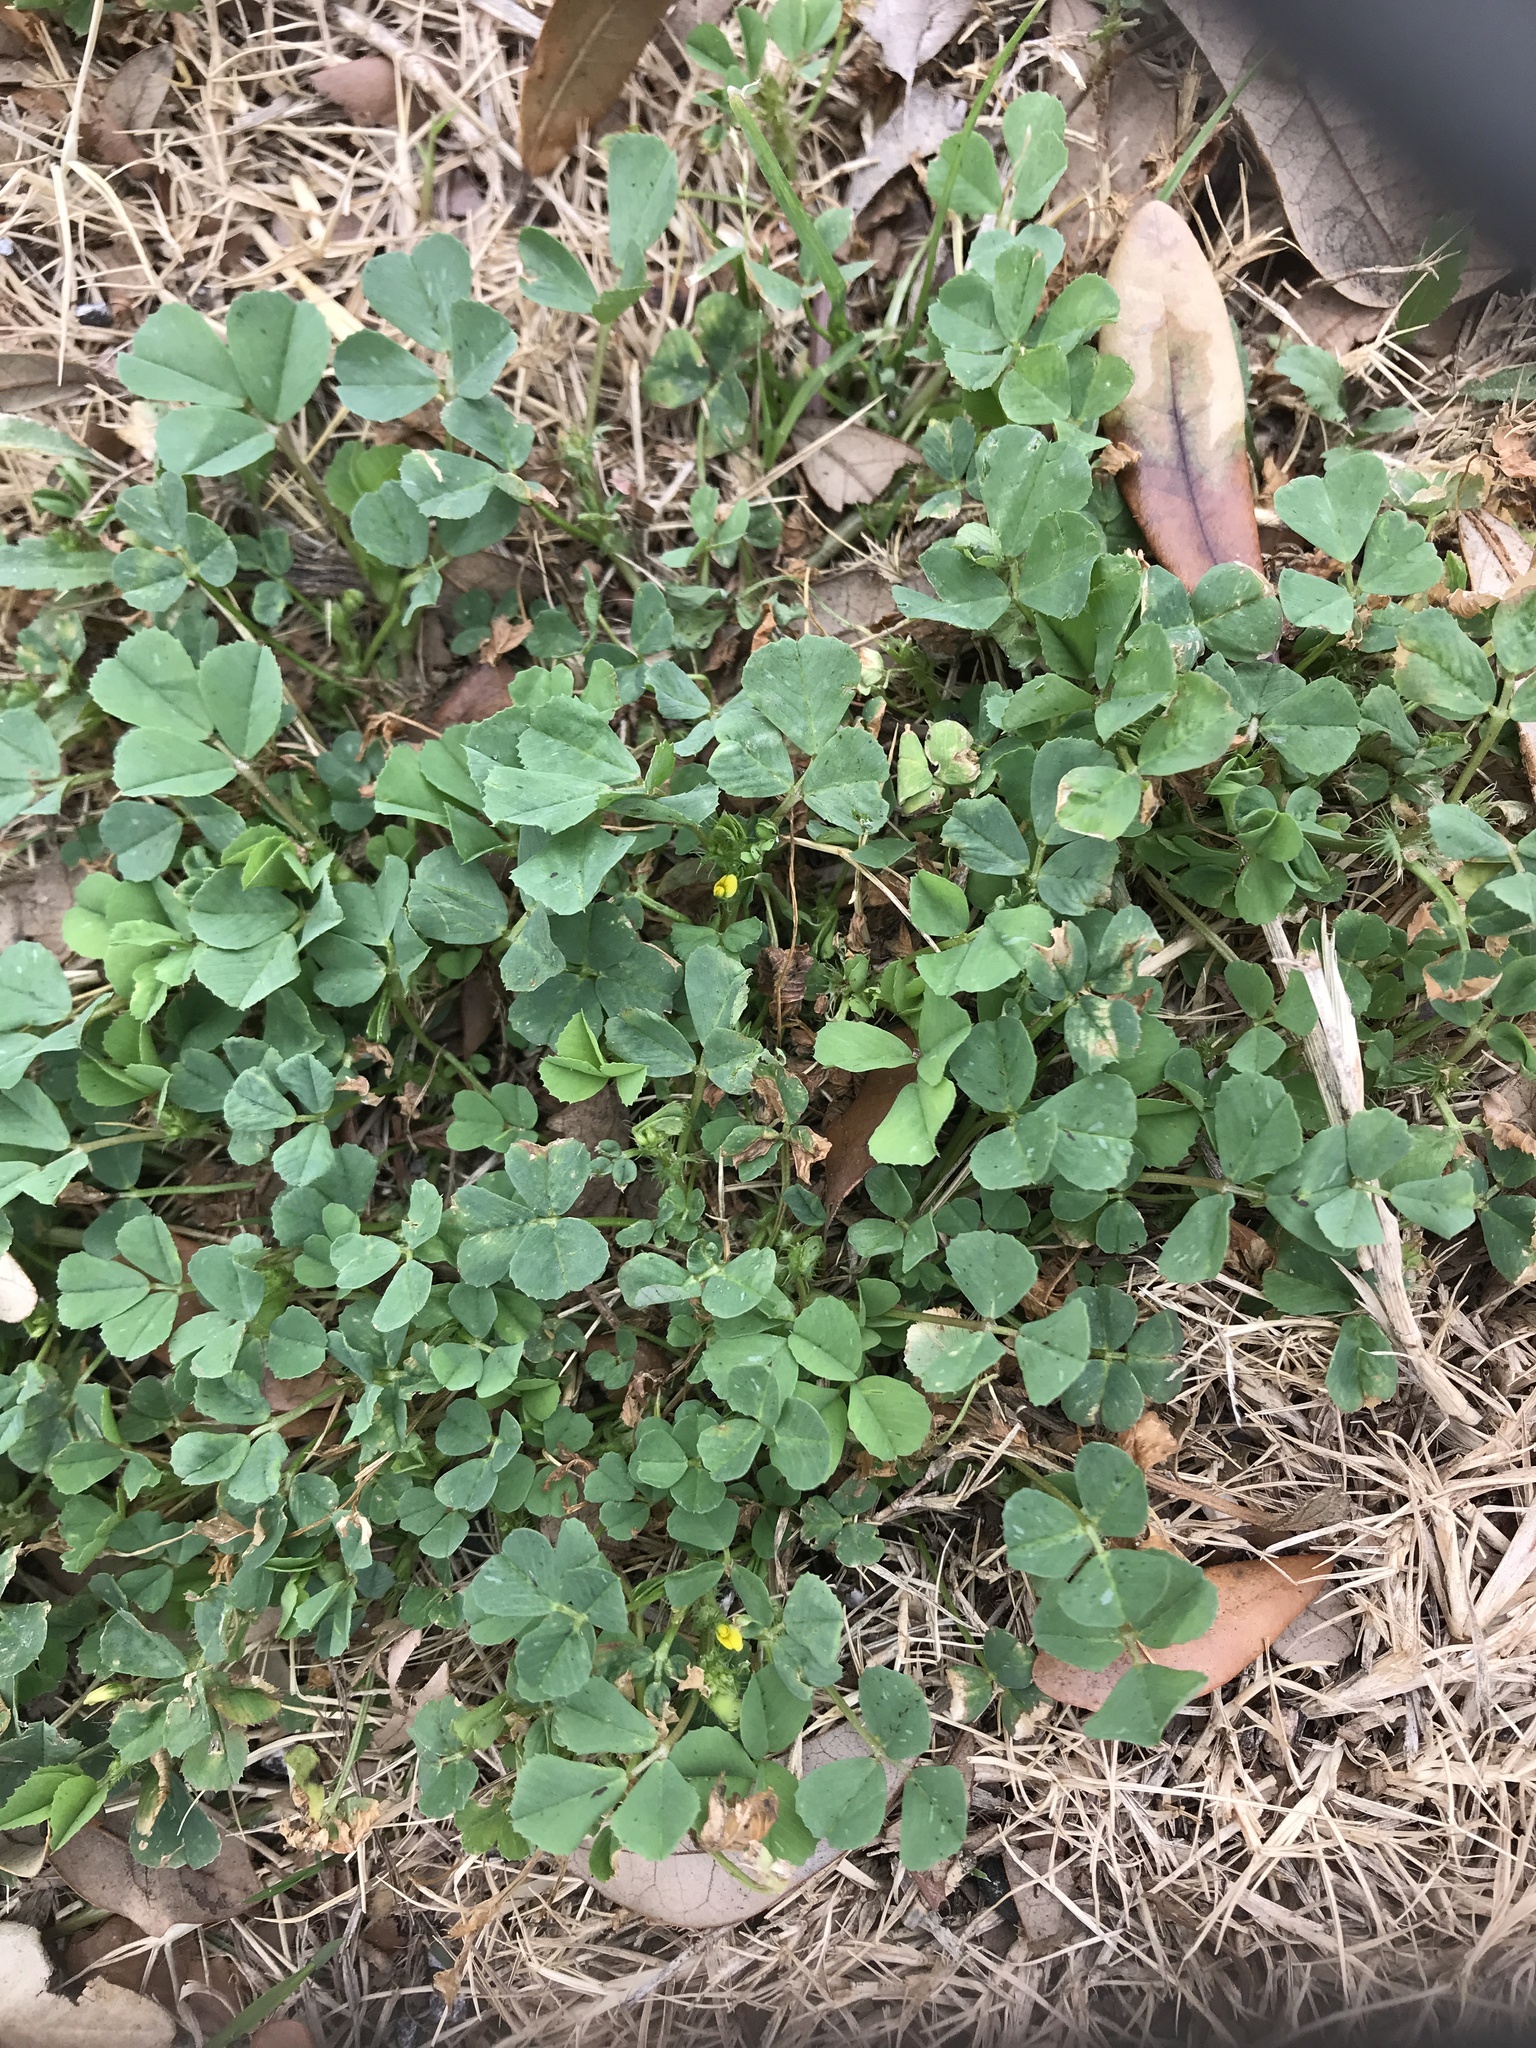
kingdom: Plantae
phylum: Tracheophyta
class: Magnoliopsida
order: Fabales
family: Fabaceae
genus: Medicago
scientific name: Medicago polymorpha
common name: Burclover
